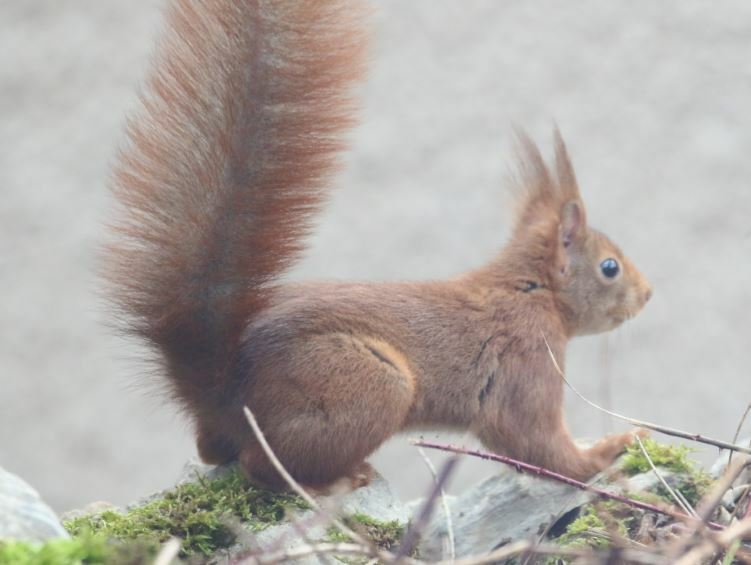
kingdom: Animalia
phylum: Chordata
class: Mammalia
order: Rodentia
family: Sciuridae
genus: Sciurus
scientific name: Sciurus vulgaris
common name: Eurasian red squirrel
